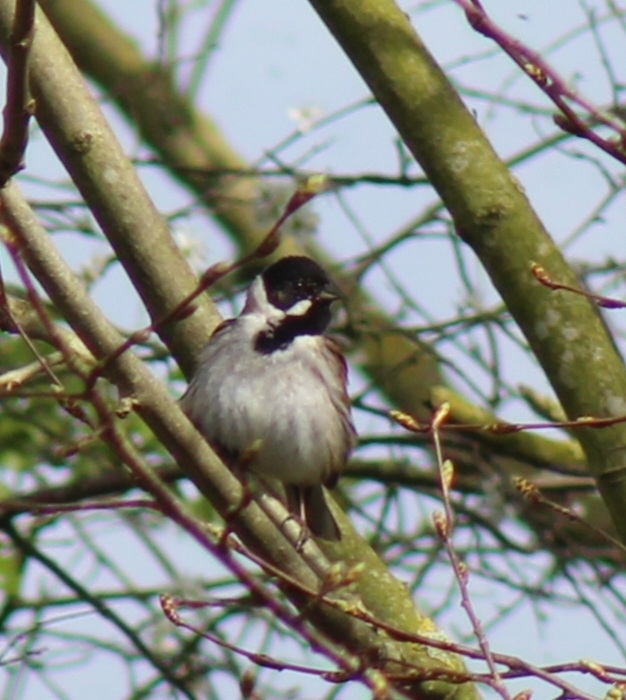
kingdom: Animalia
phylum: Chordata
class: Aves
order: Passeriformes
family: Emberizidae
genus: Emberiza
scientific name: Emberiza schoeniclus
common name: Reed bunting
